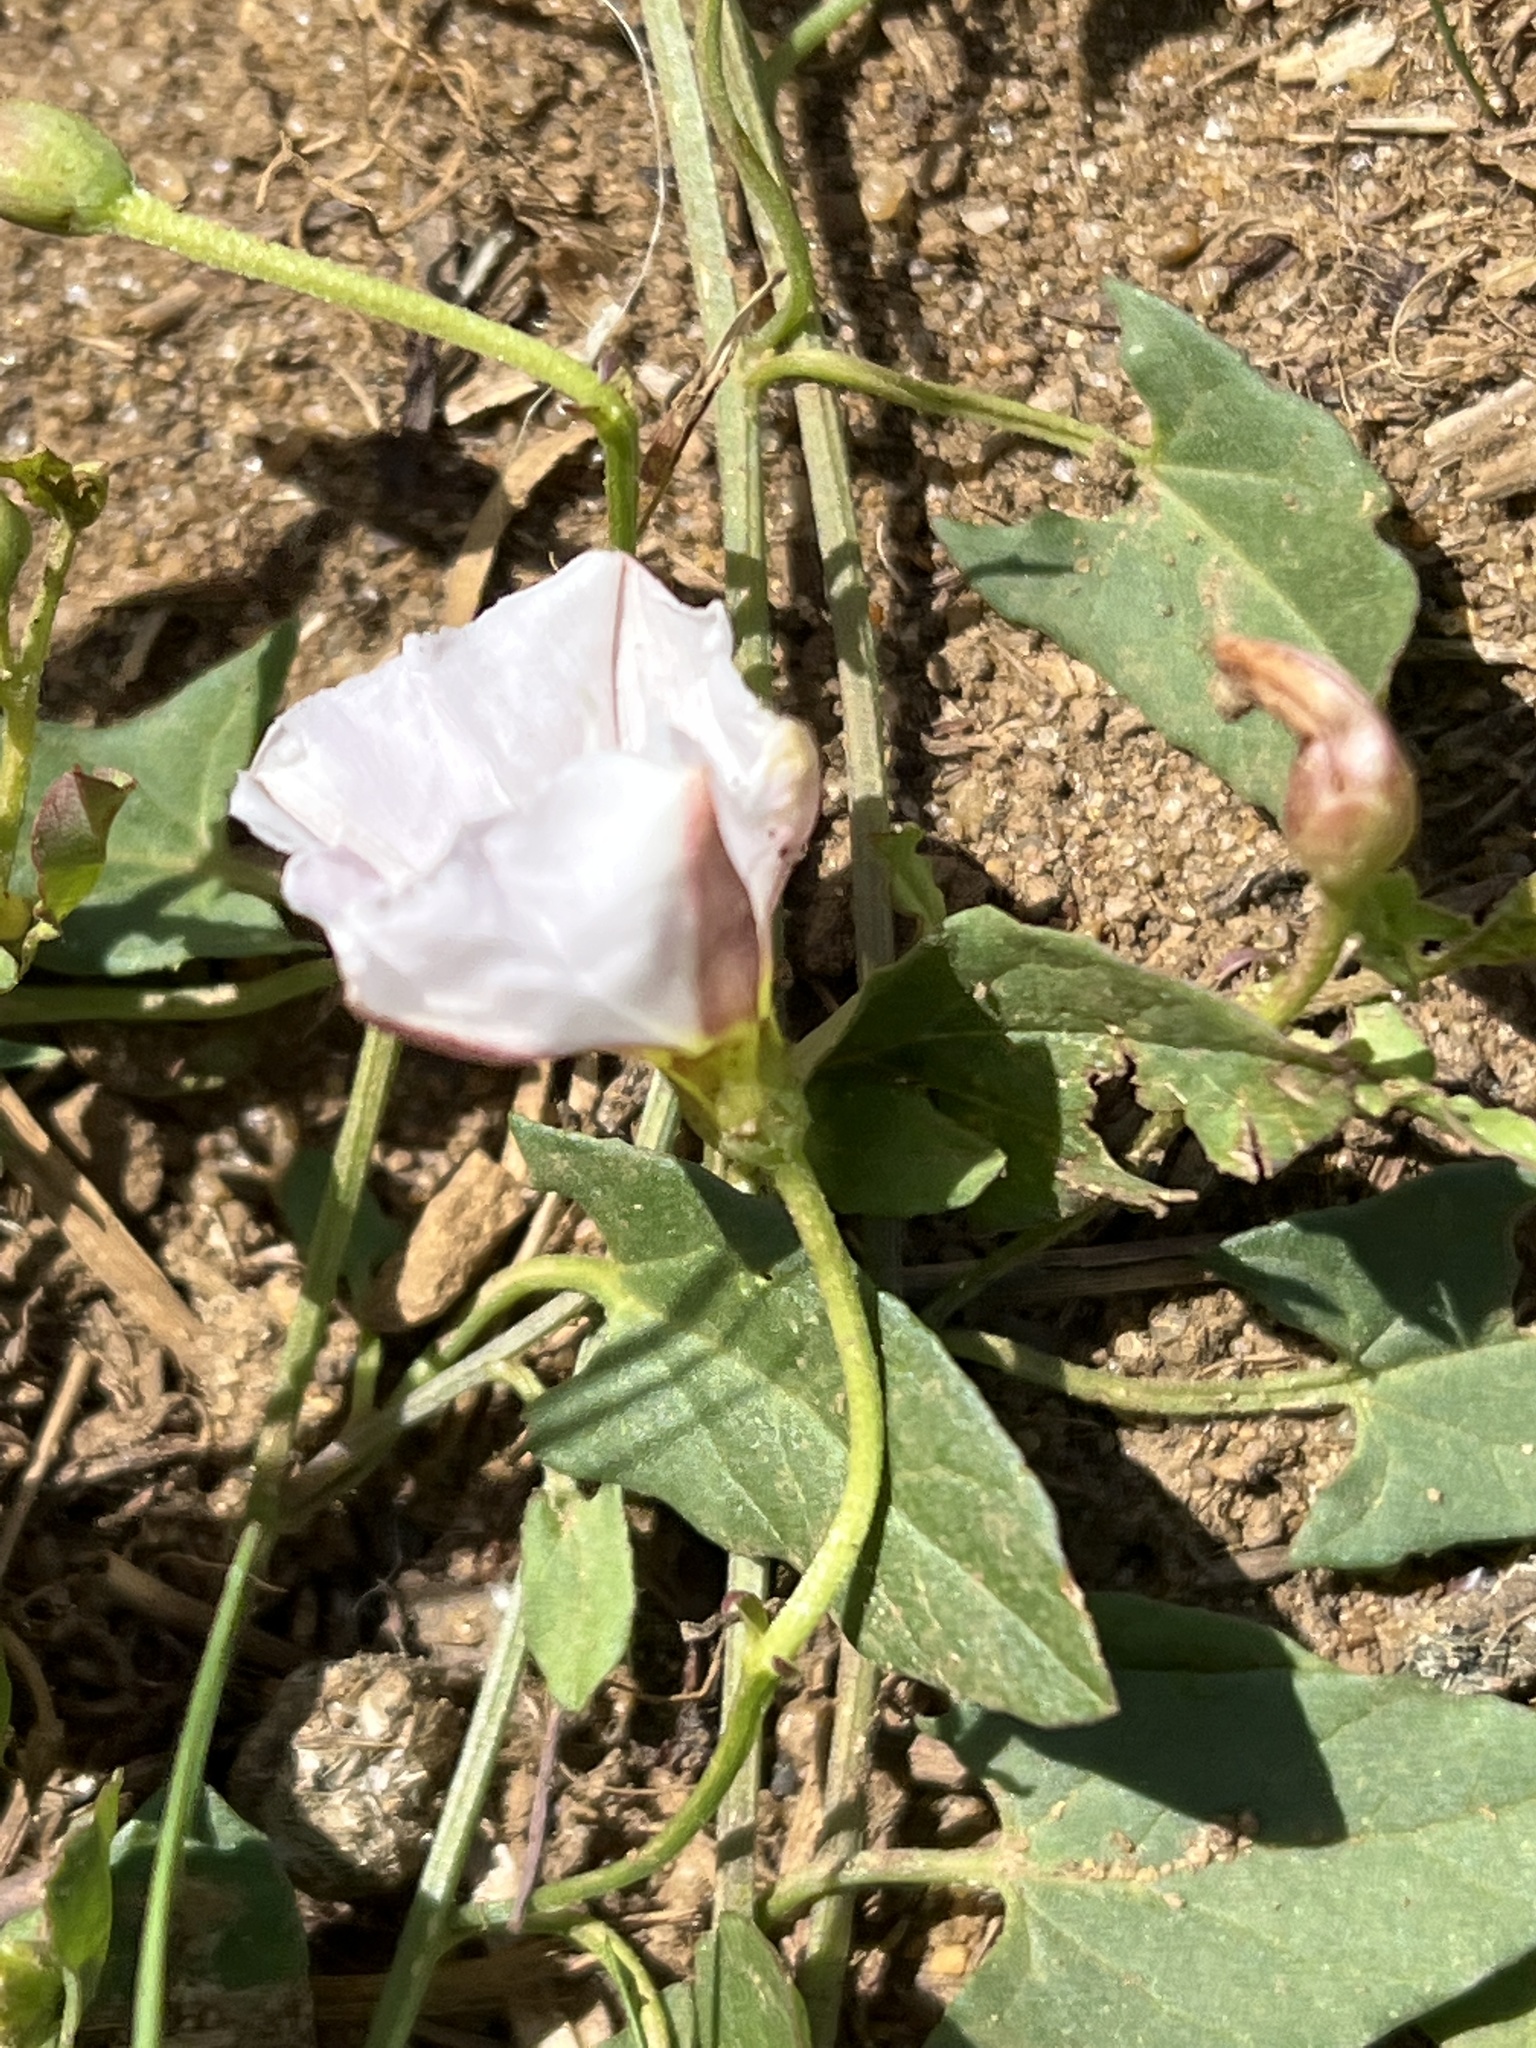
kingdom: Plantae
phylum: Tracheophyta
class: Magnoliopsida
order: Solanales
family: Convolvulaceae
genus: Convolvulus
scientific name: Convolvulus arvensis
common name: Field bindweed
